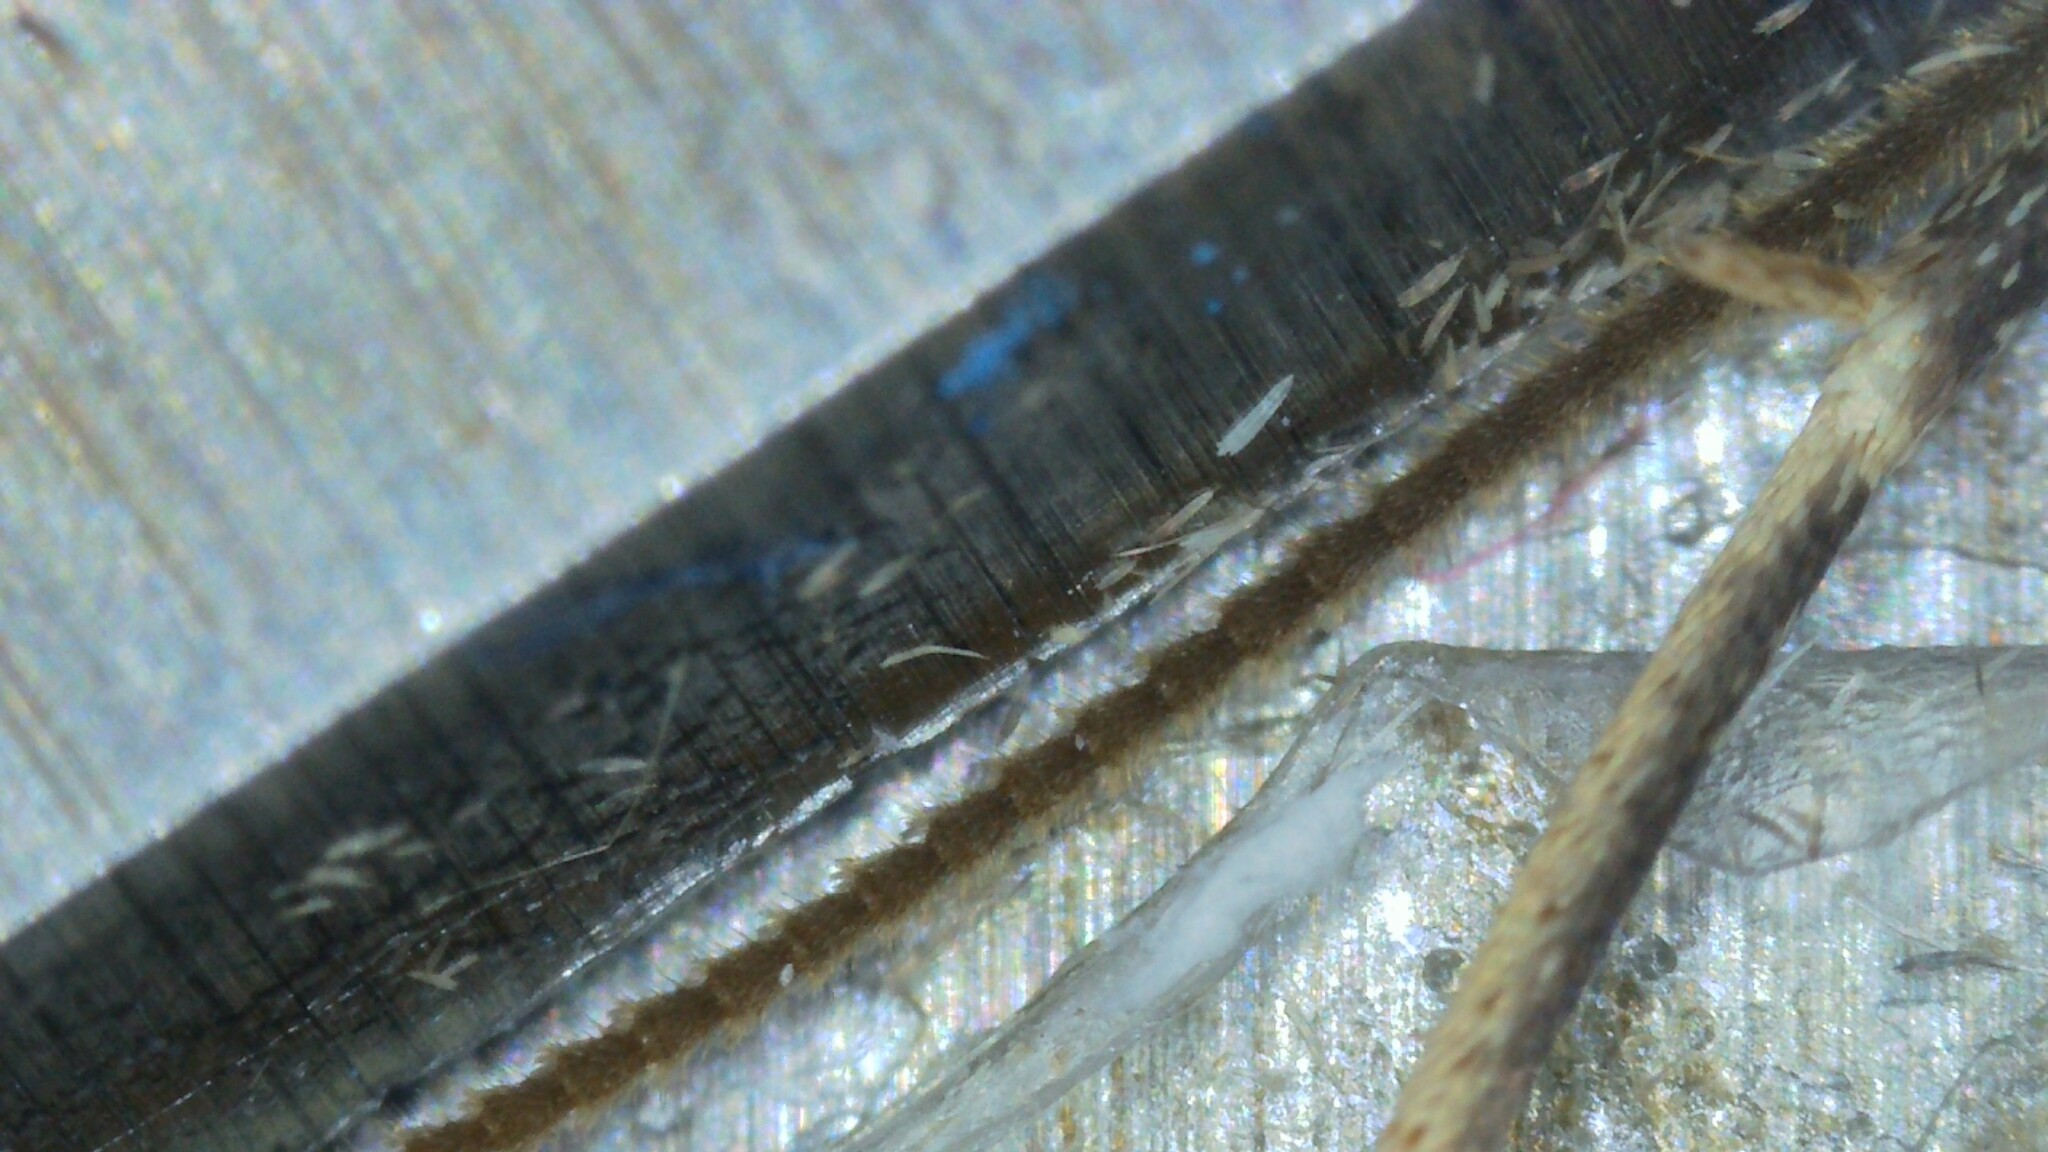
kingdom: Animalia
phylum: Arthropoda
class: Insecta
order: Lepidoptera
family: Geometridae
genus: Thera
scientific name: Thera britannica
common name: Spruce carpet
